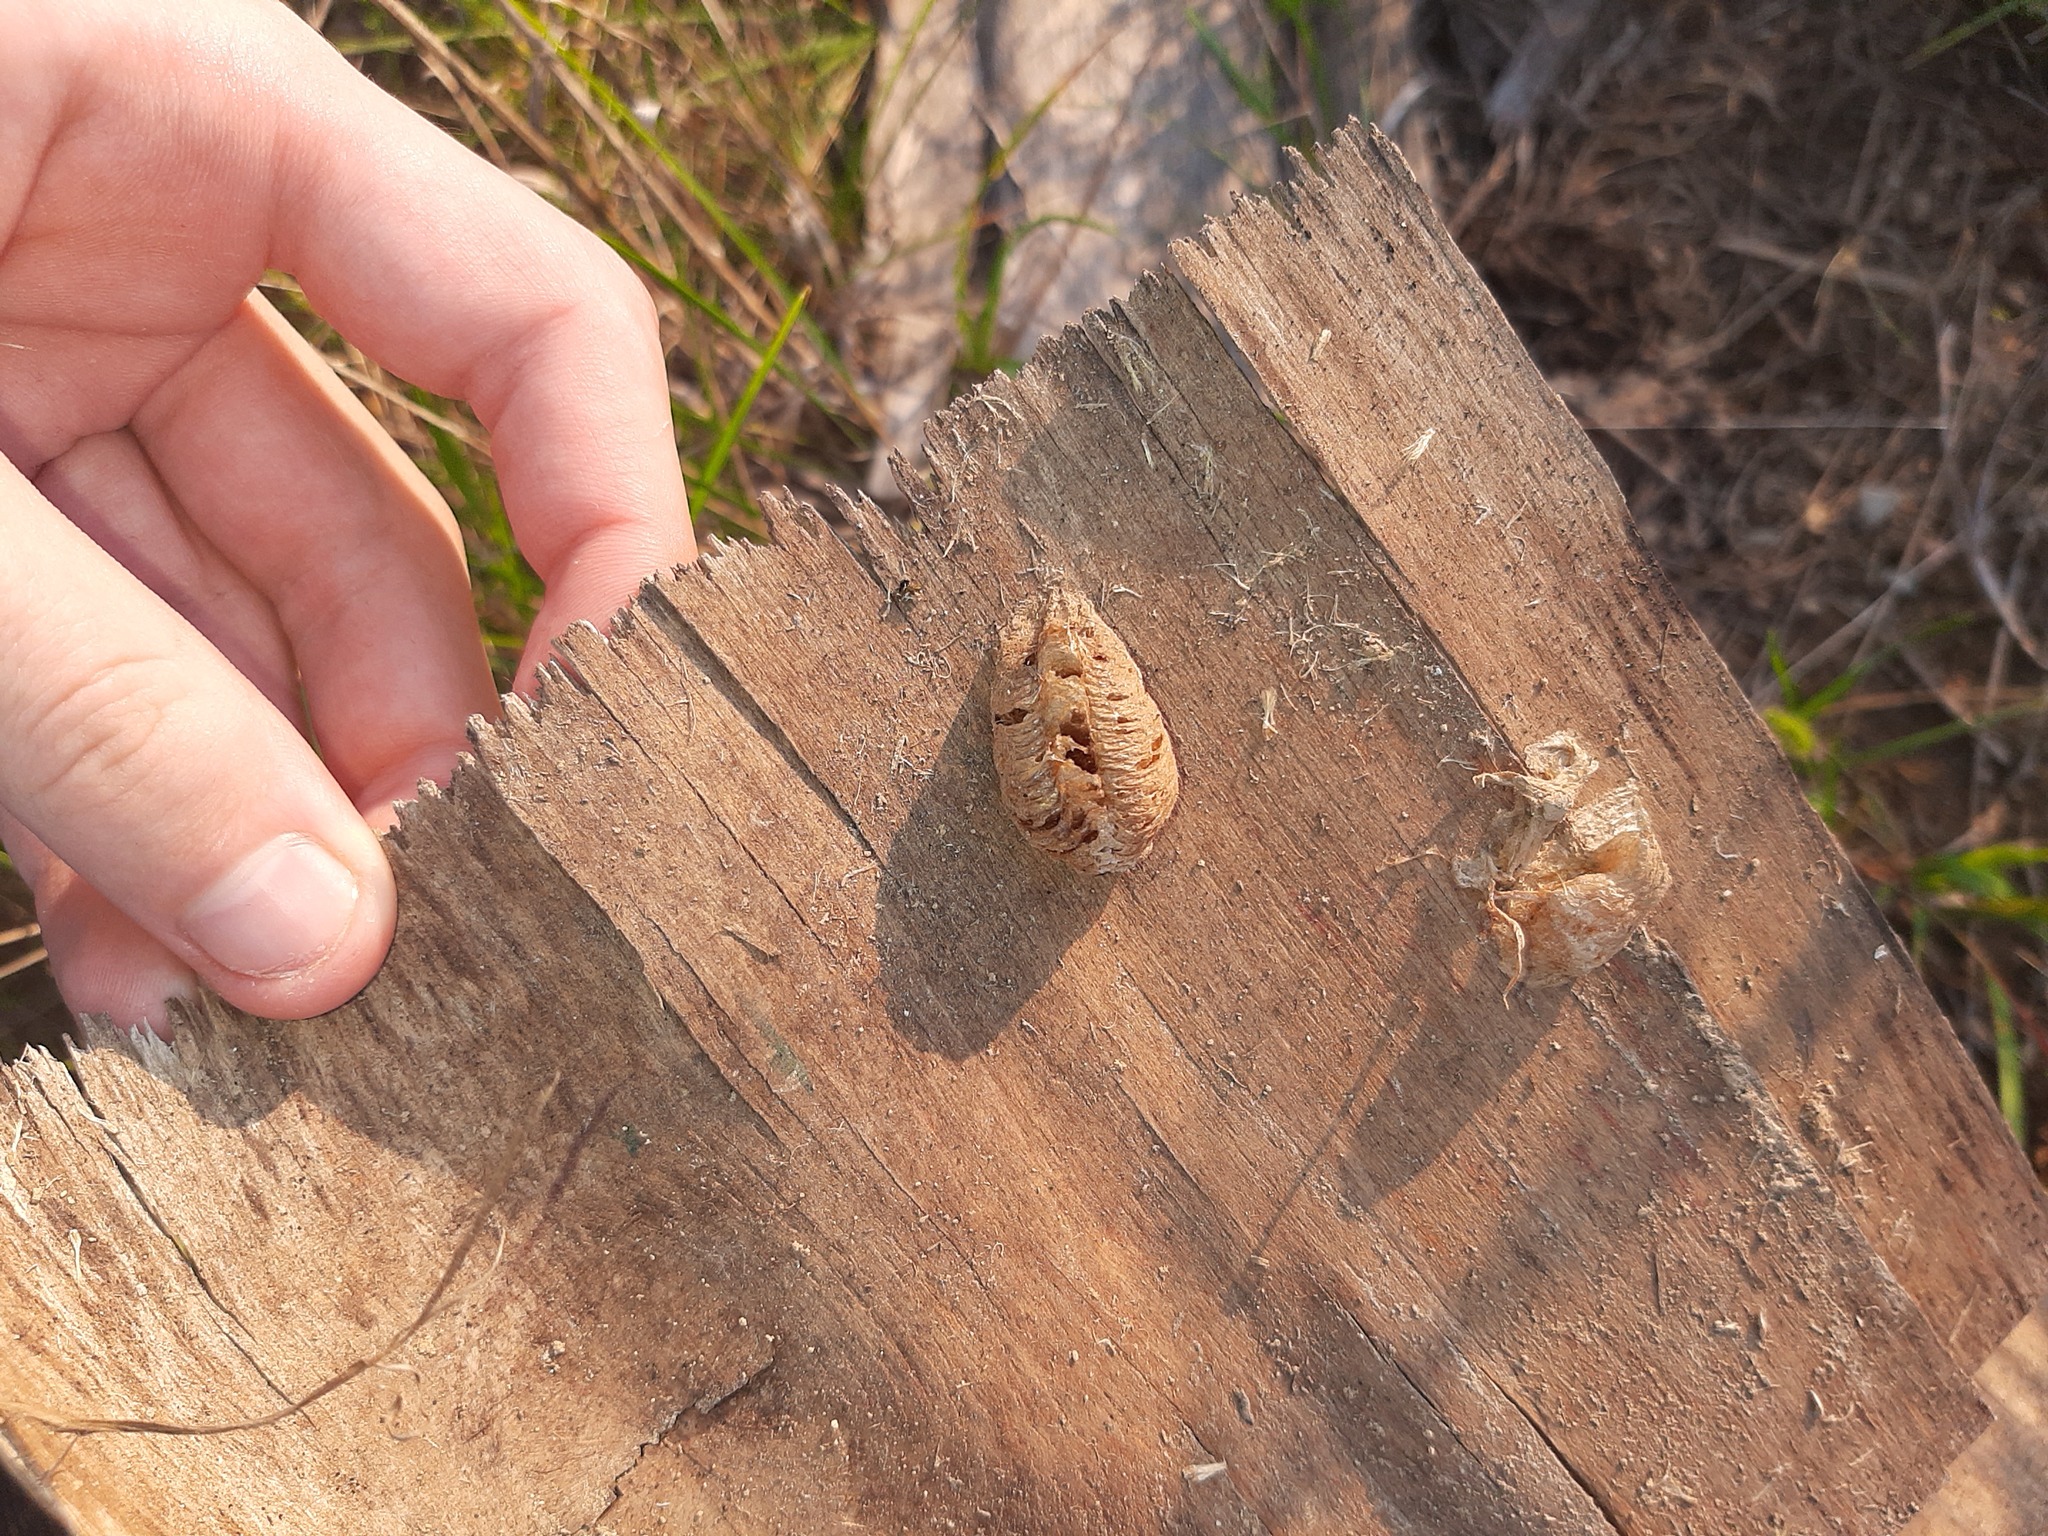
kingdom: Animalia
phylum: Arthropoda
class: Insecta
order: Mantodea
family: Mantidae
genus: Mantis
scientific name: Mantis religiosa
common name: Praying mantis
